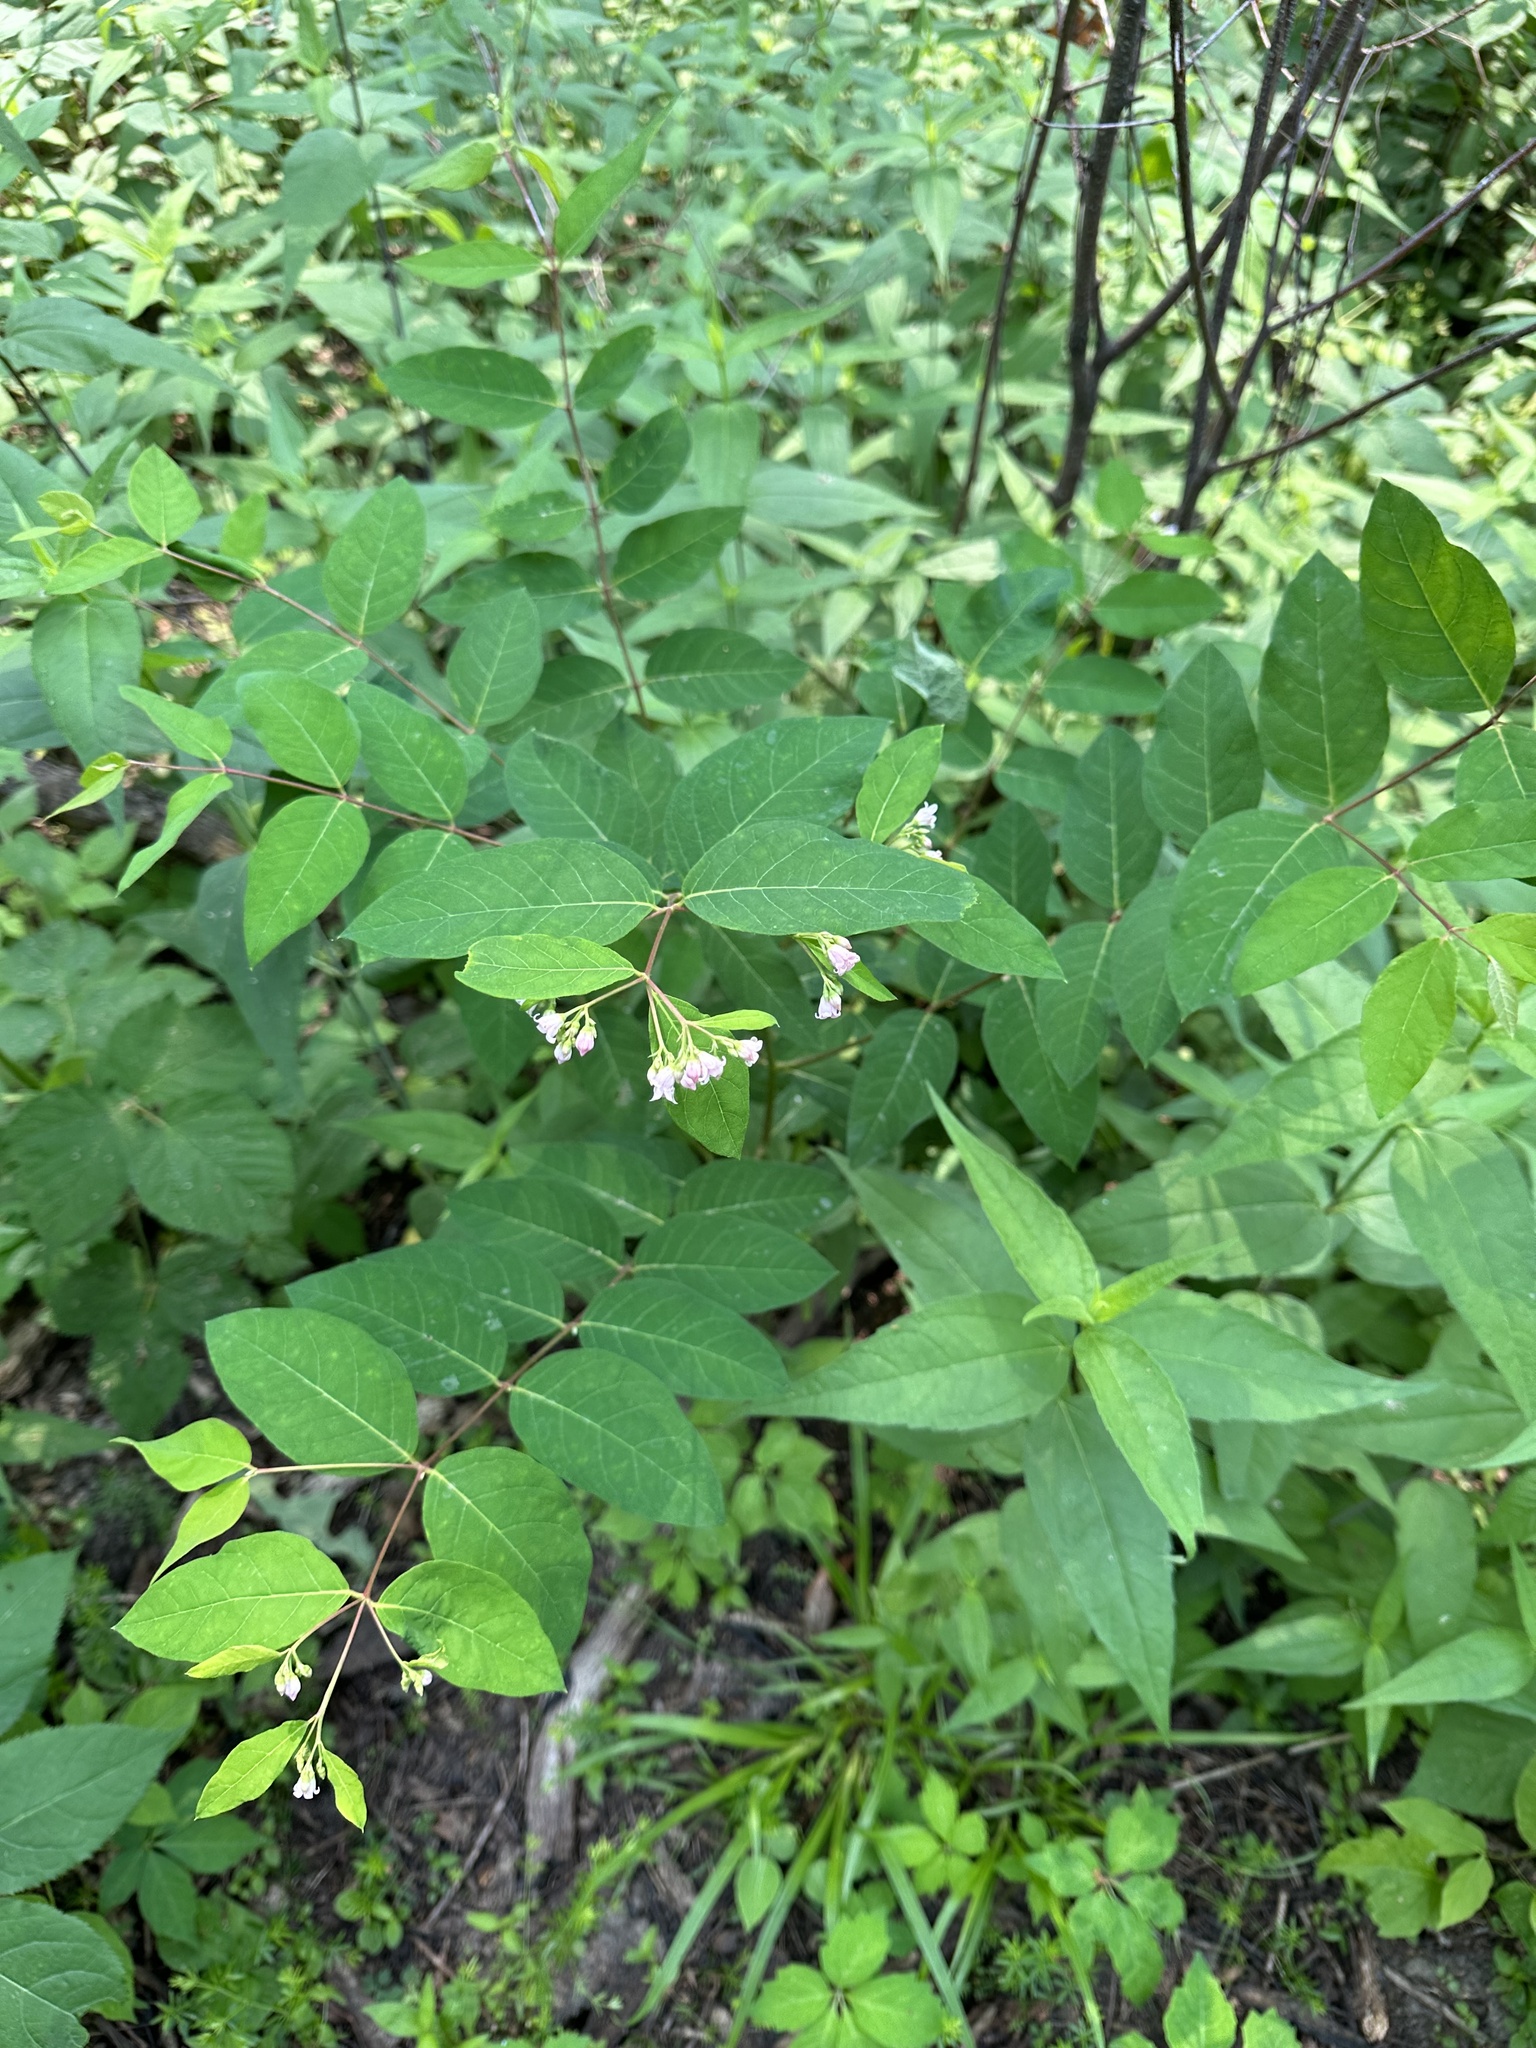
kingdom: Plantae
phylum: Tracheophyta
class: Magnoliopsida
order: Gentianales
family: Apocynaceae
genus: Apocynum
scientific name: Apocynum androsaemifolium
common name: Spreading dogbane
